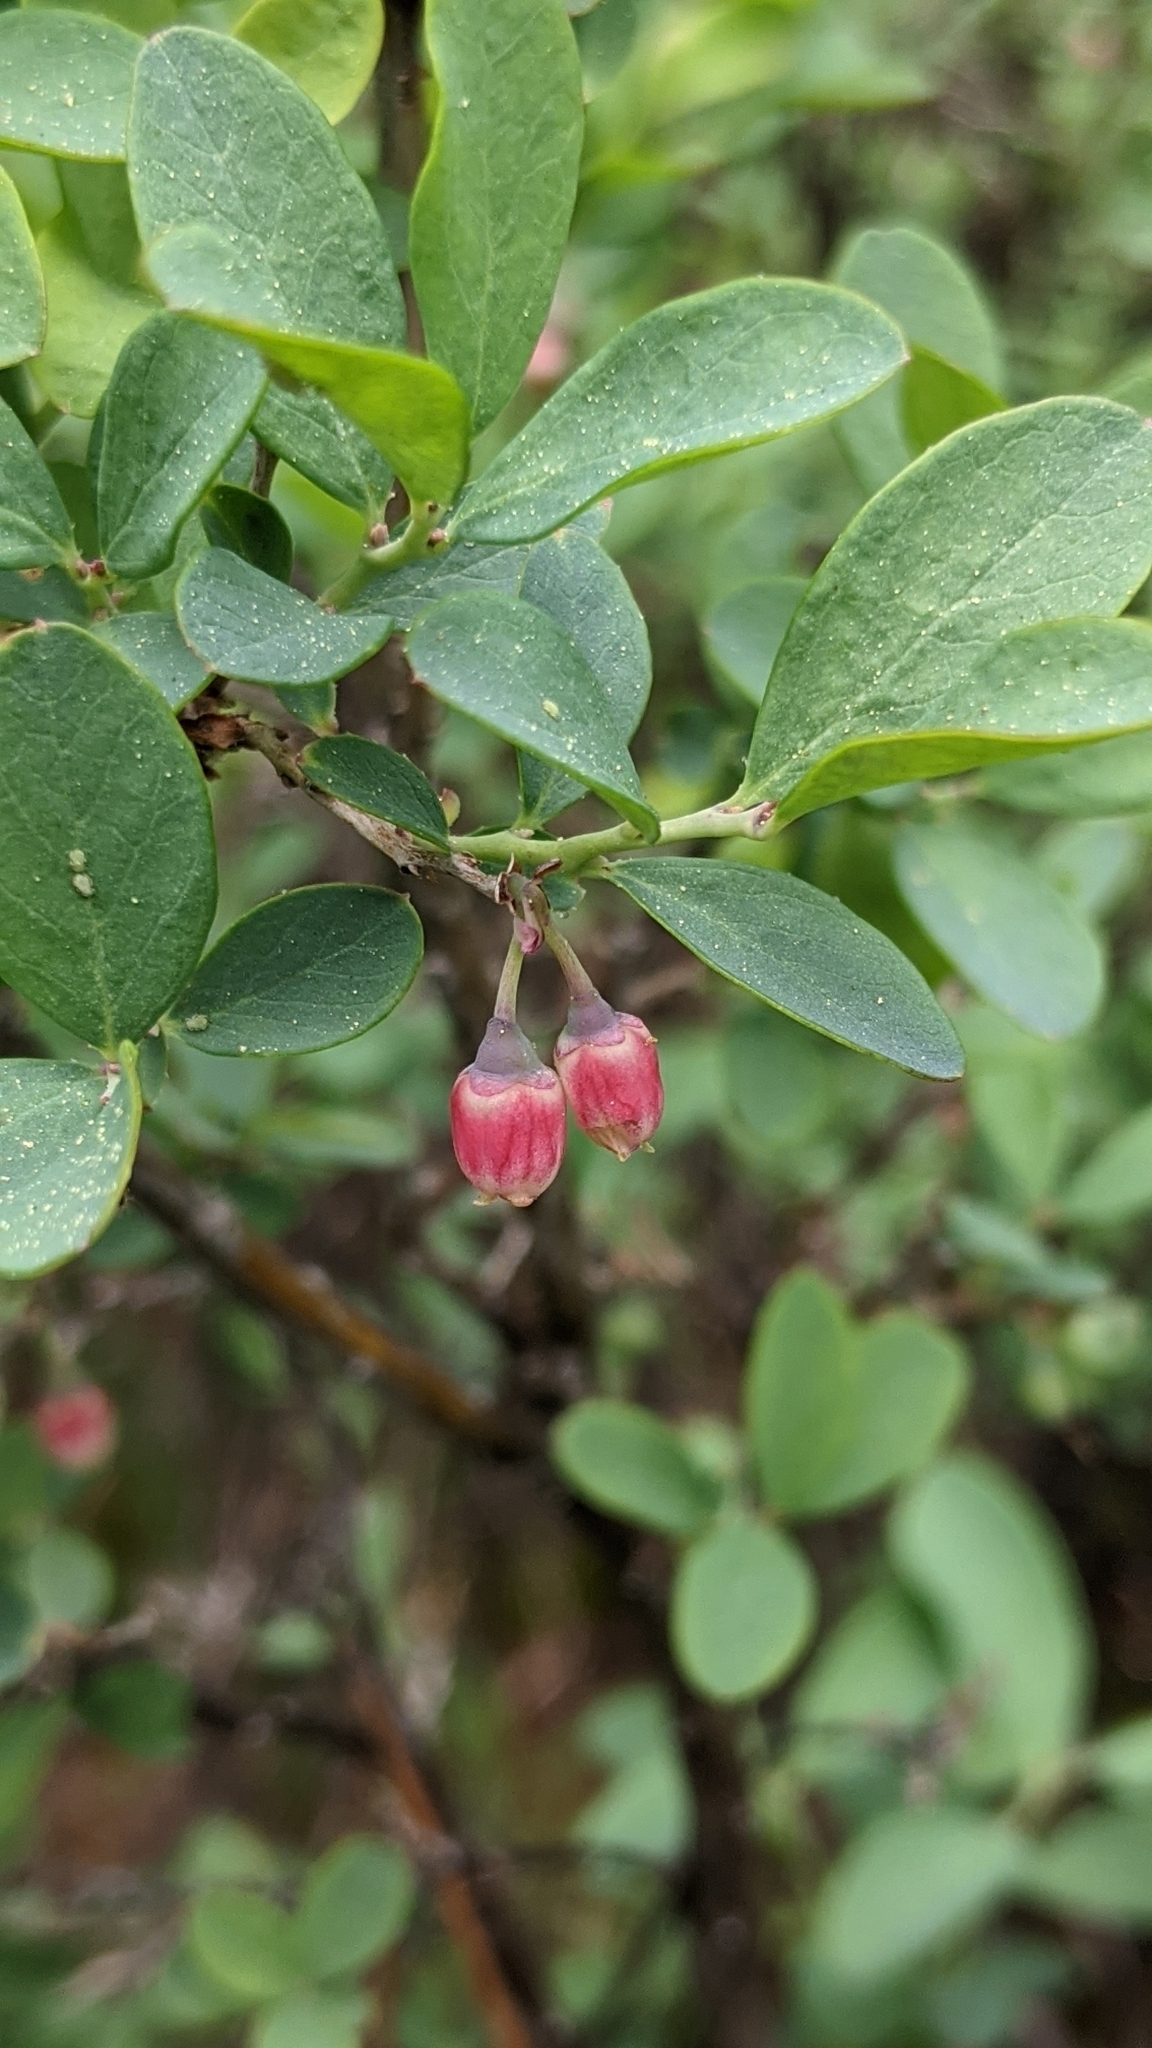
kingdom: Plantae
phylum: Tracheophyta
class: Magnoliopsida
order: Ericales
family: Ericaceae
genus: Vaccinium
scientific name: Vaccinium uliginosum
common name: Bog bilberry
